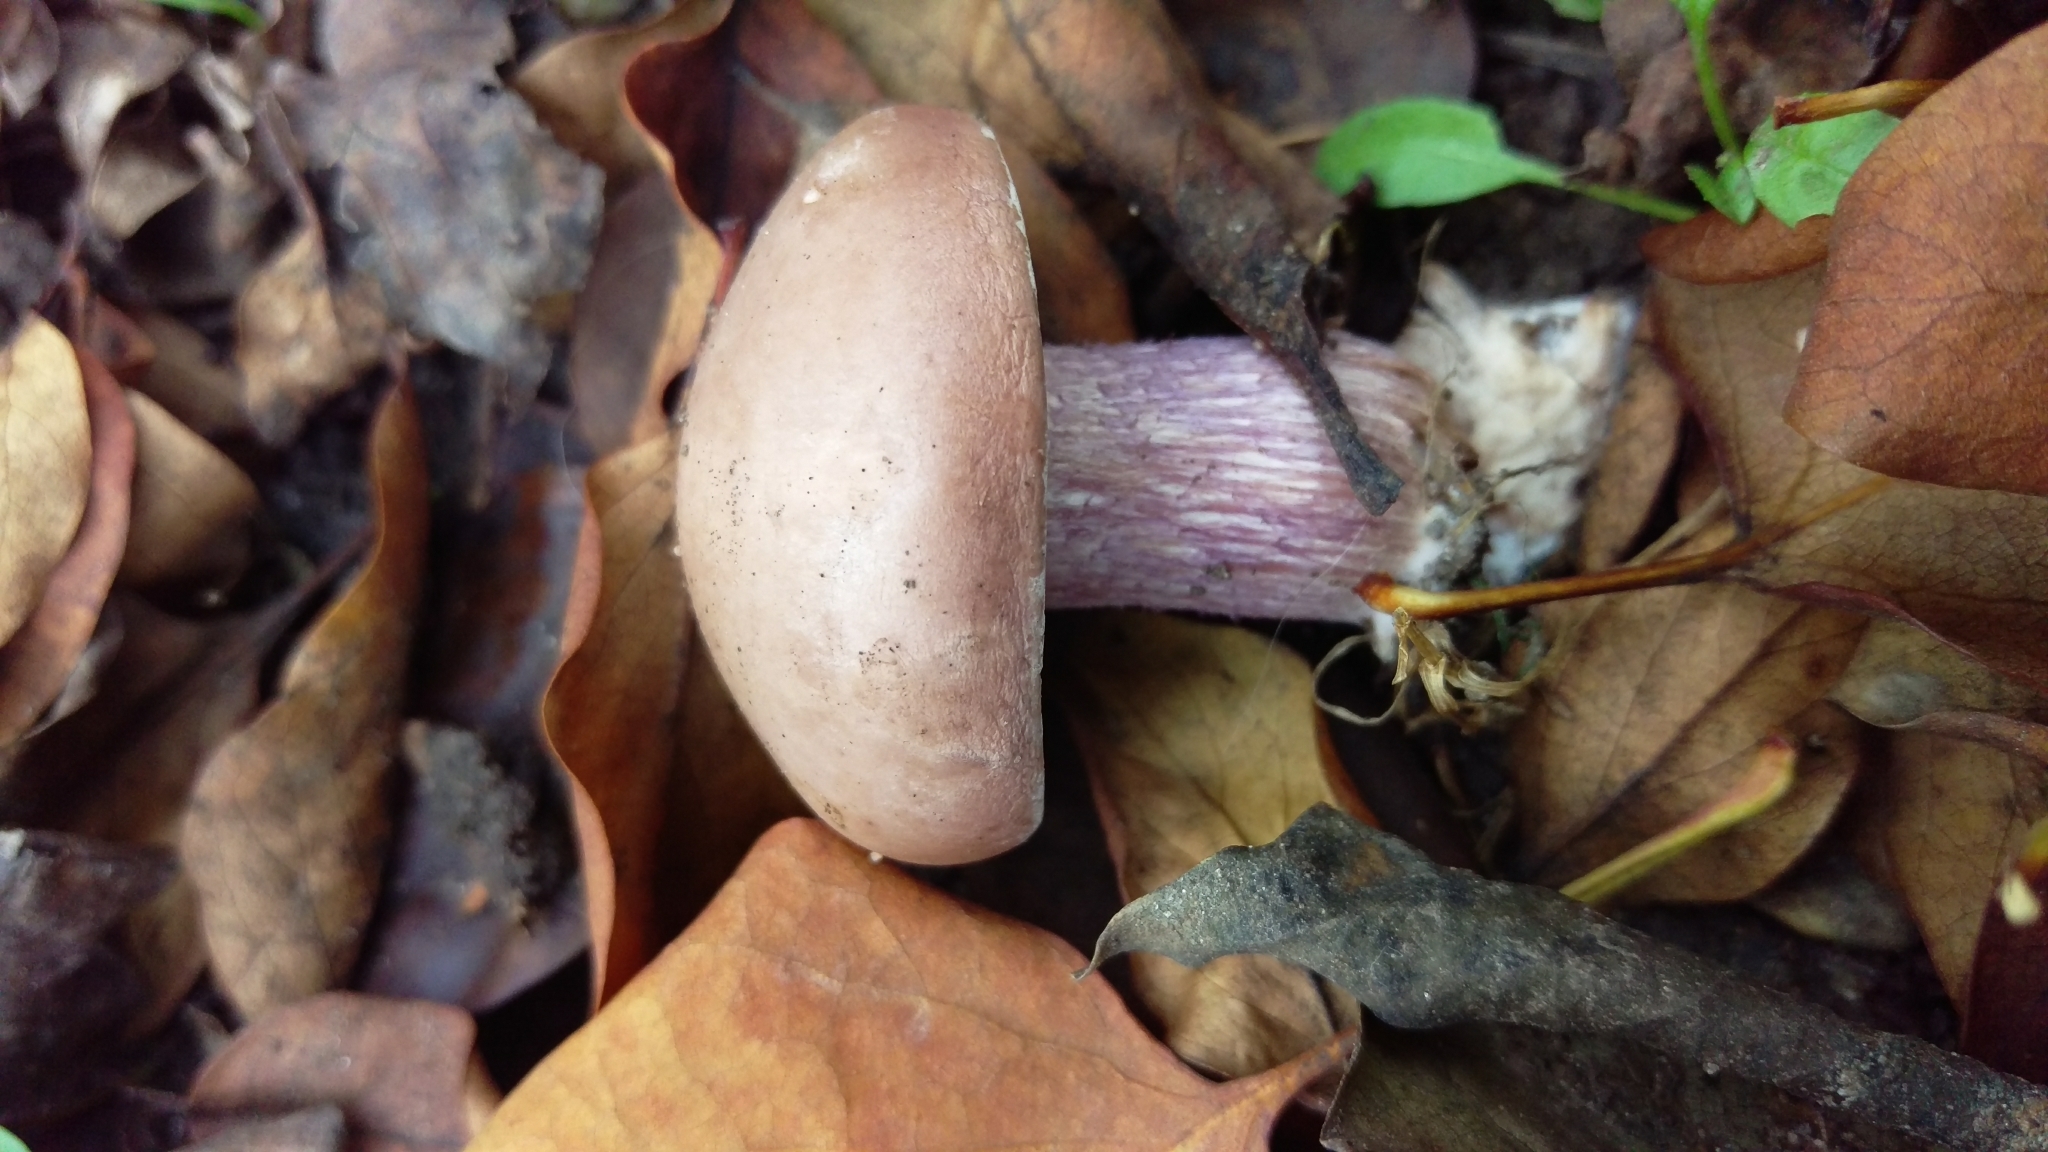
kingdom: Fungi
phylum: Basidiomycota
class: Agaricomycetes
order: Agaricales
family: Tricholomataceae
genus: Collybia
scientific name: Collybia
